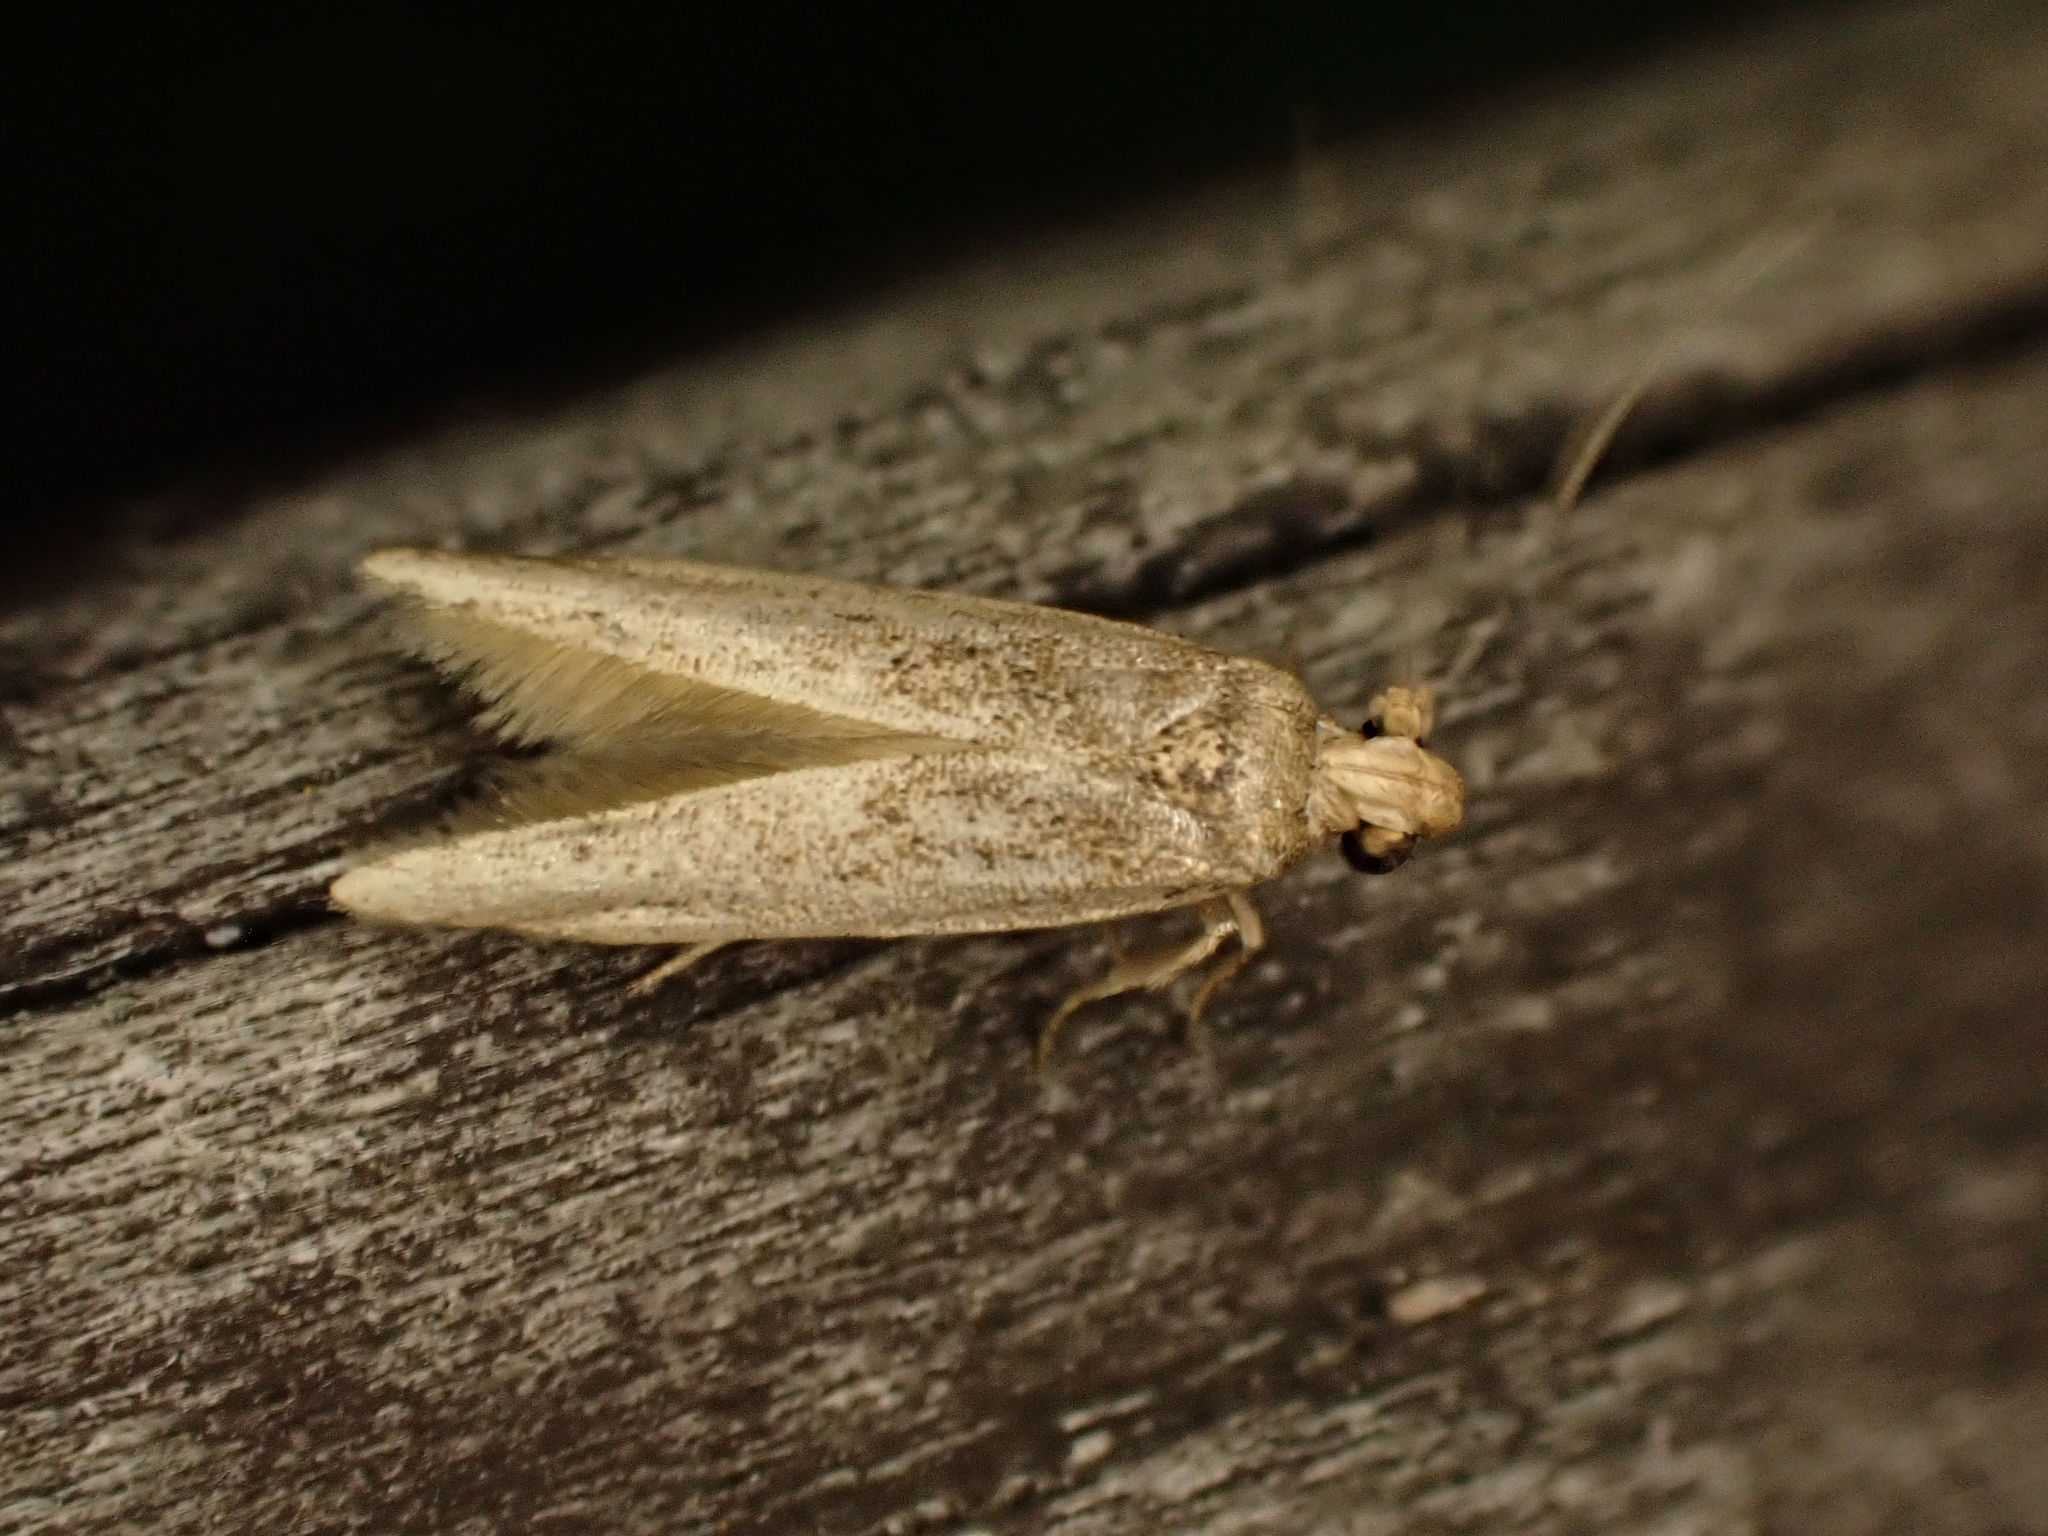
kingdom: Animalia
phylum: Arthropoda
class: Insecta
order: Lepidoptera
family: Blastobasidae
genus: Blastobasis
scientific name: Blastobasis tarda
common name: Blastobasid moth
